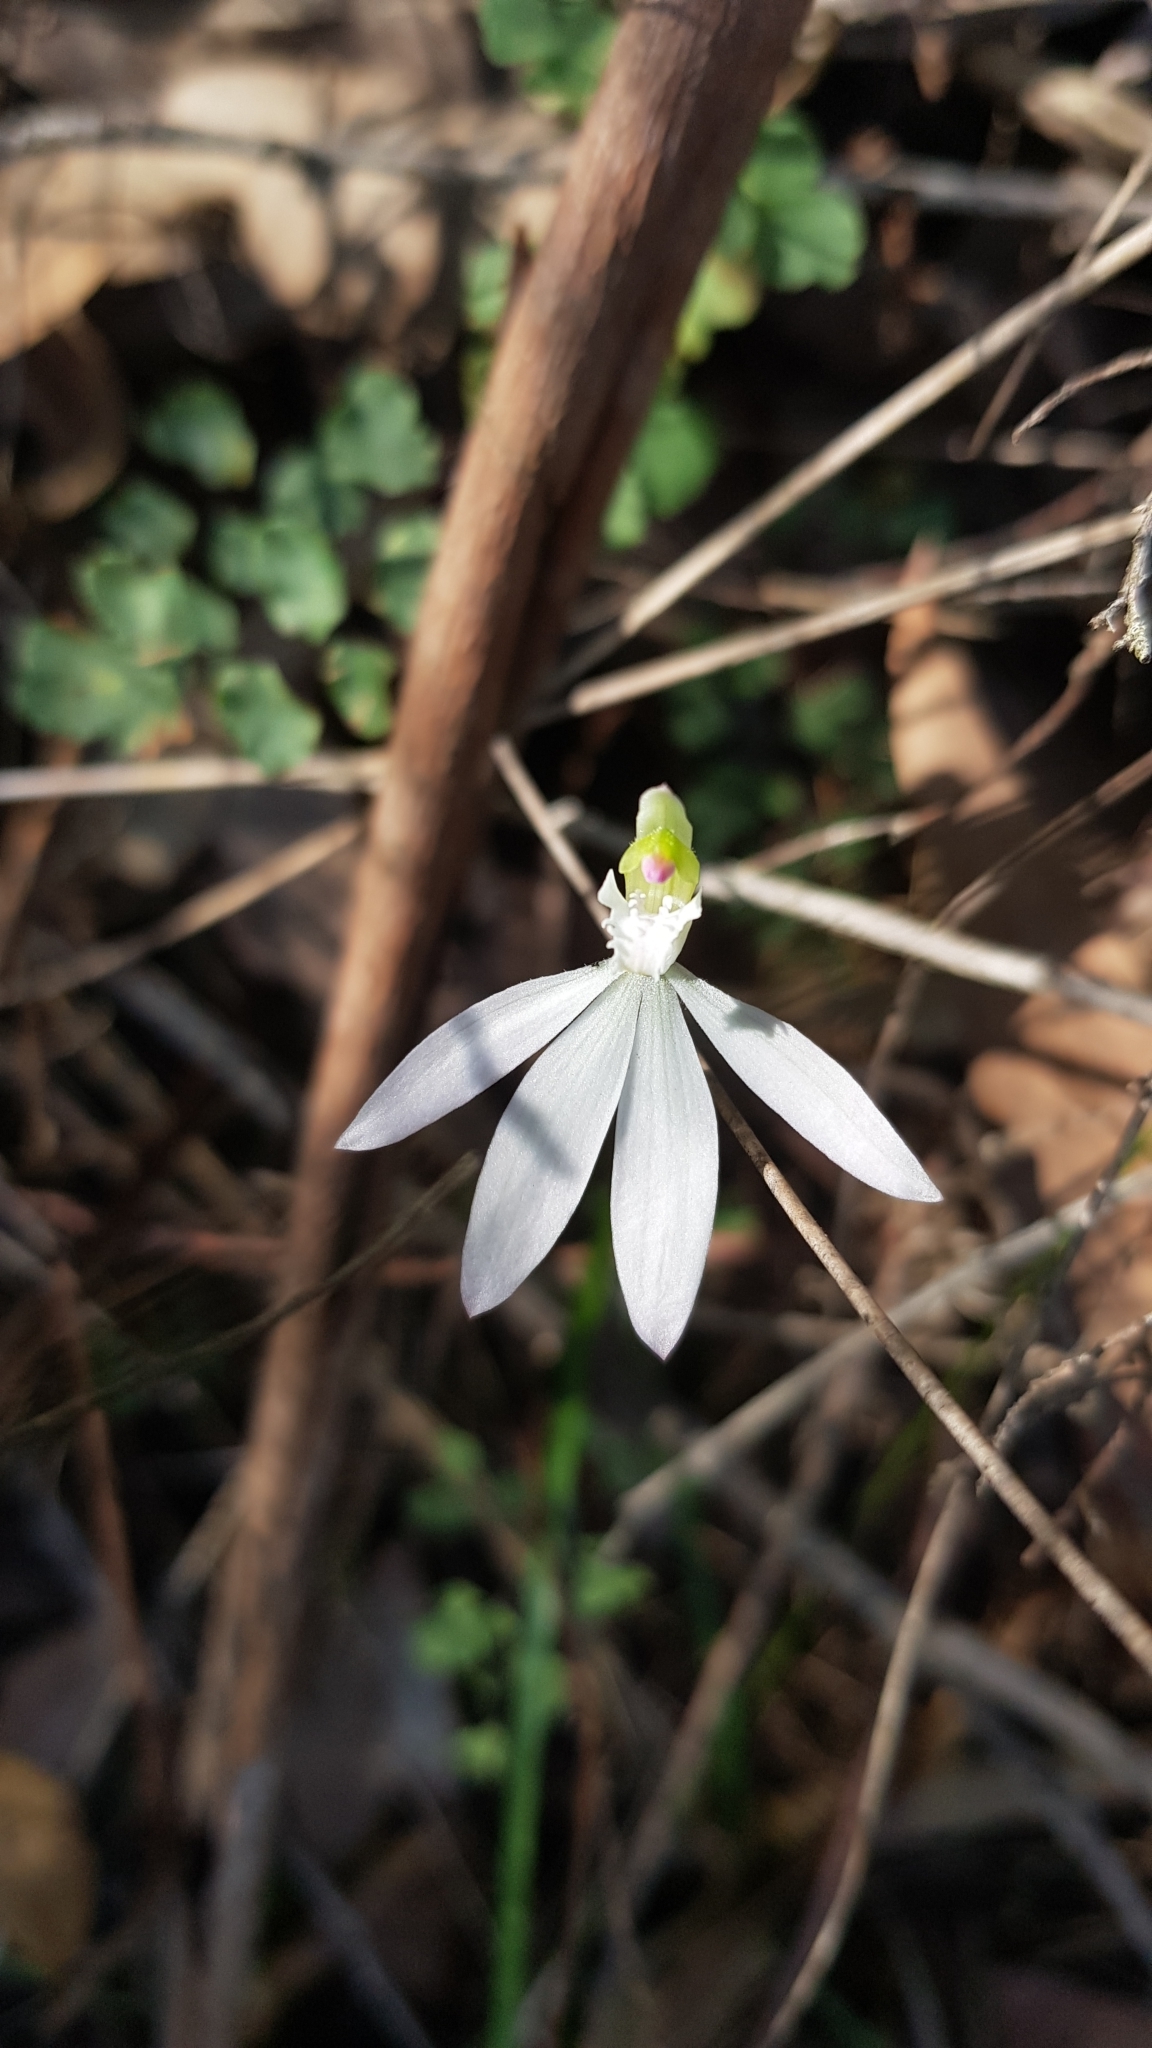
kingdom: Plantae
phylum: Tracheophyta
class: Liliopsida
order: Asparagales
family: Orchidaceae
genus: Caladenia
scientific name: Caladenia catenata
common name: White caladenia
